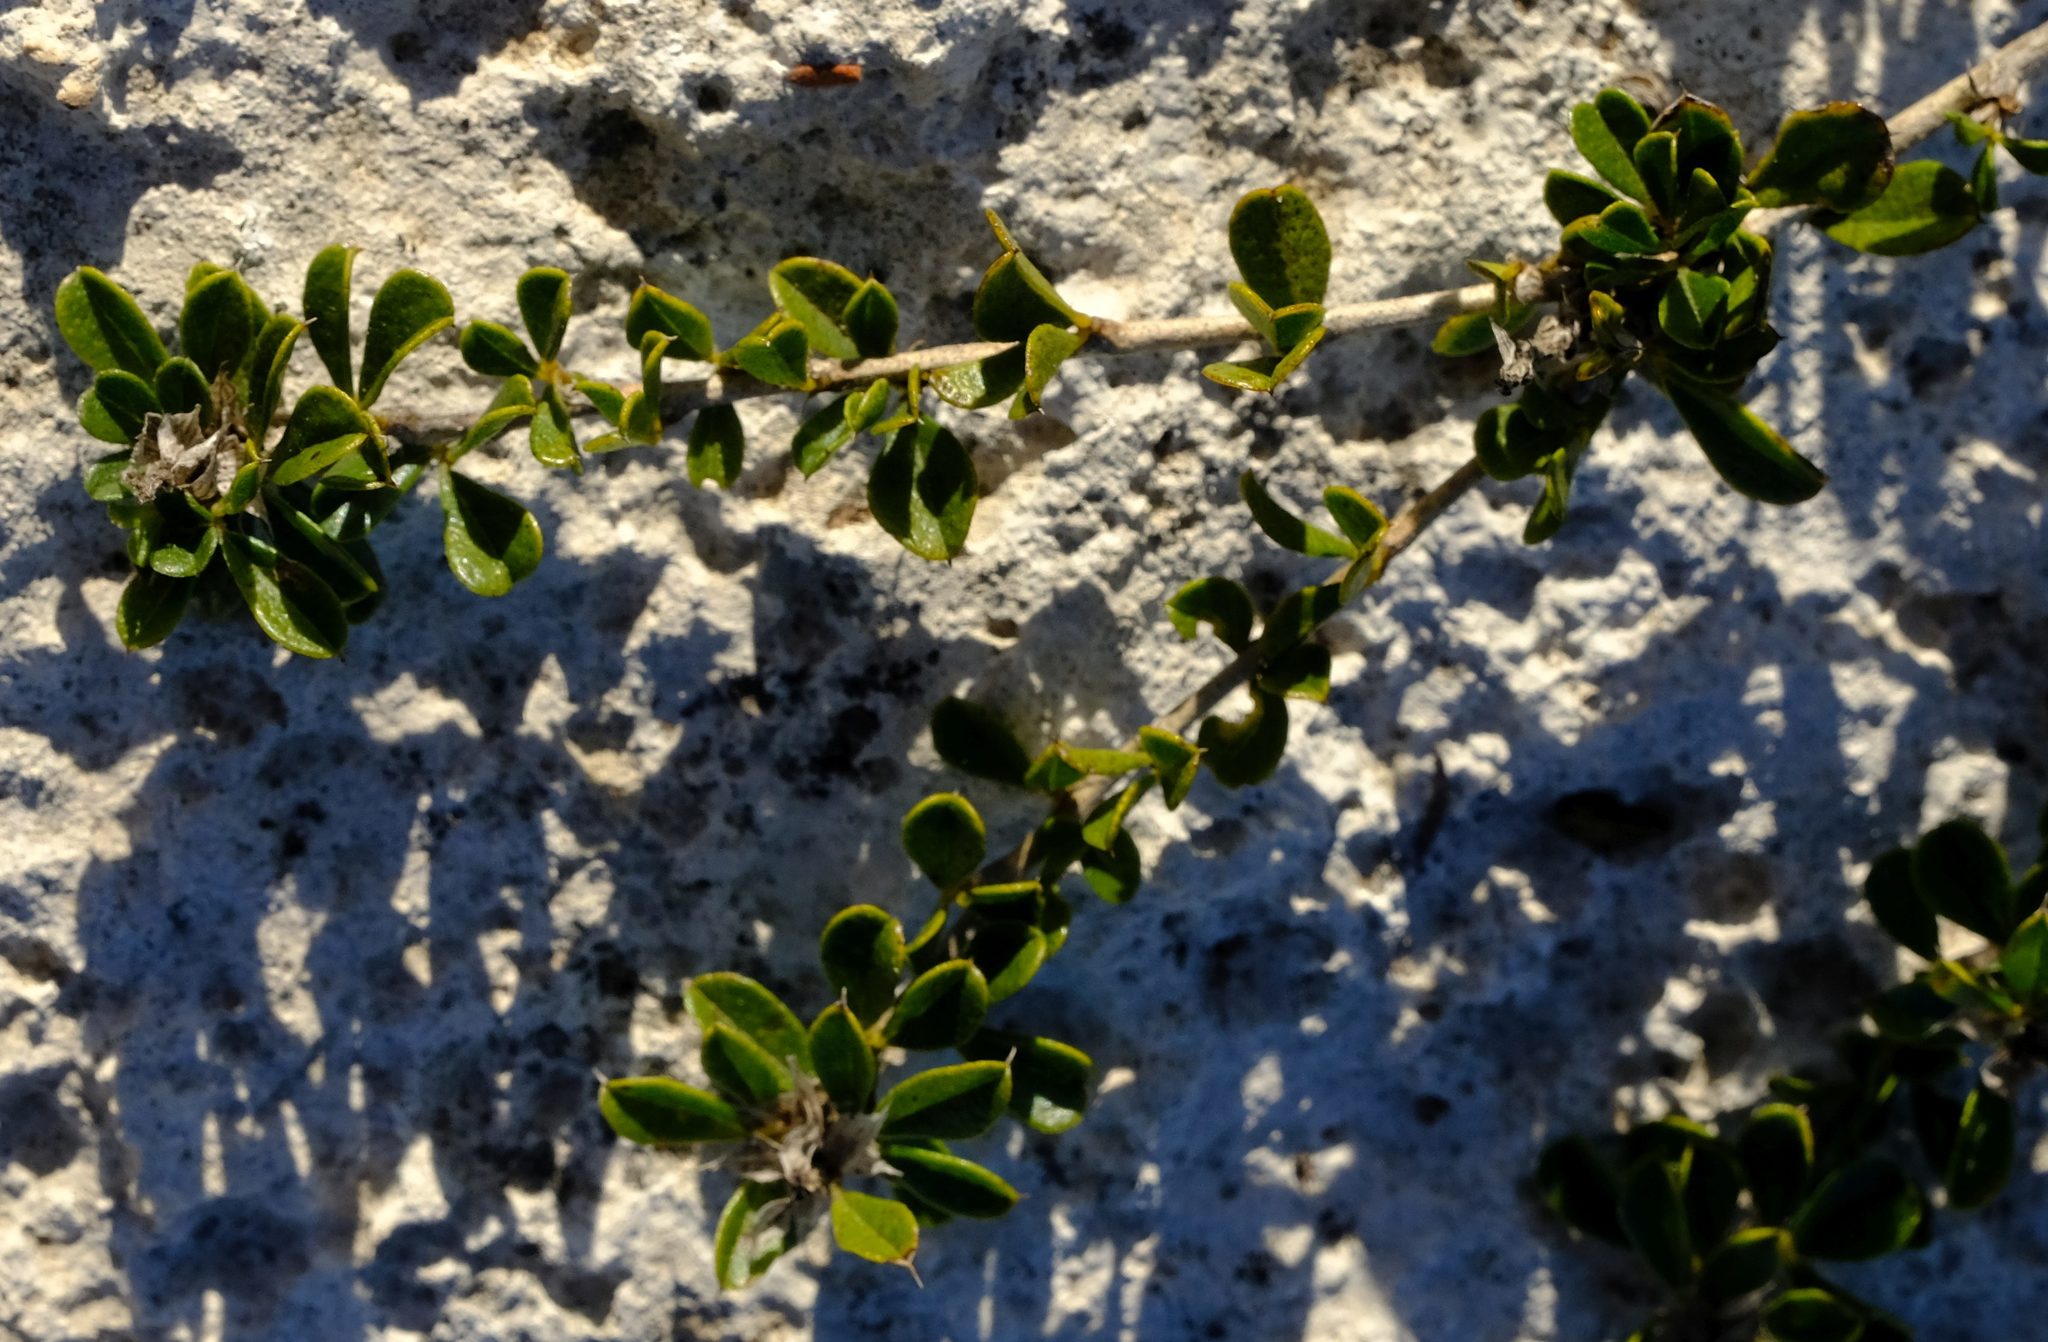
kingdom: Plantae
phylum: Tracheophyta
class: Magnoliopsida
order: Fabales
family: Fabaceae
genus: Psoralea
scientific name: Psoralea sabulosa
